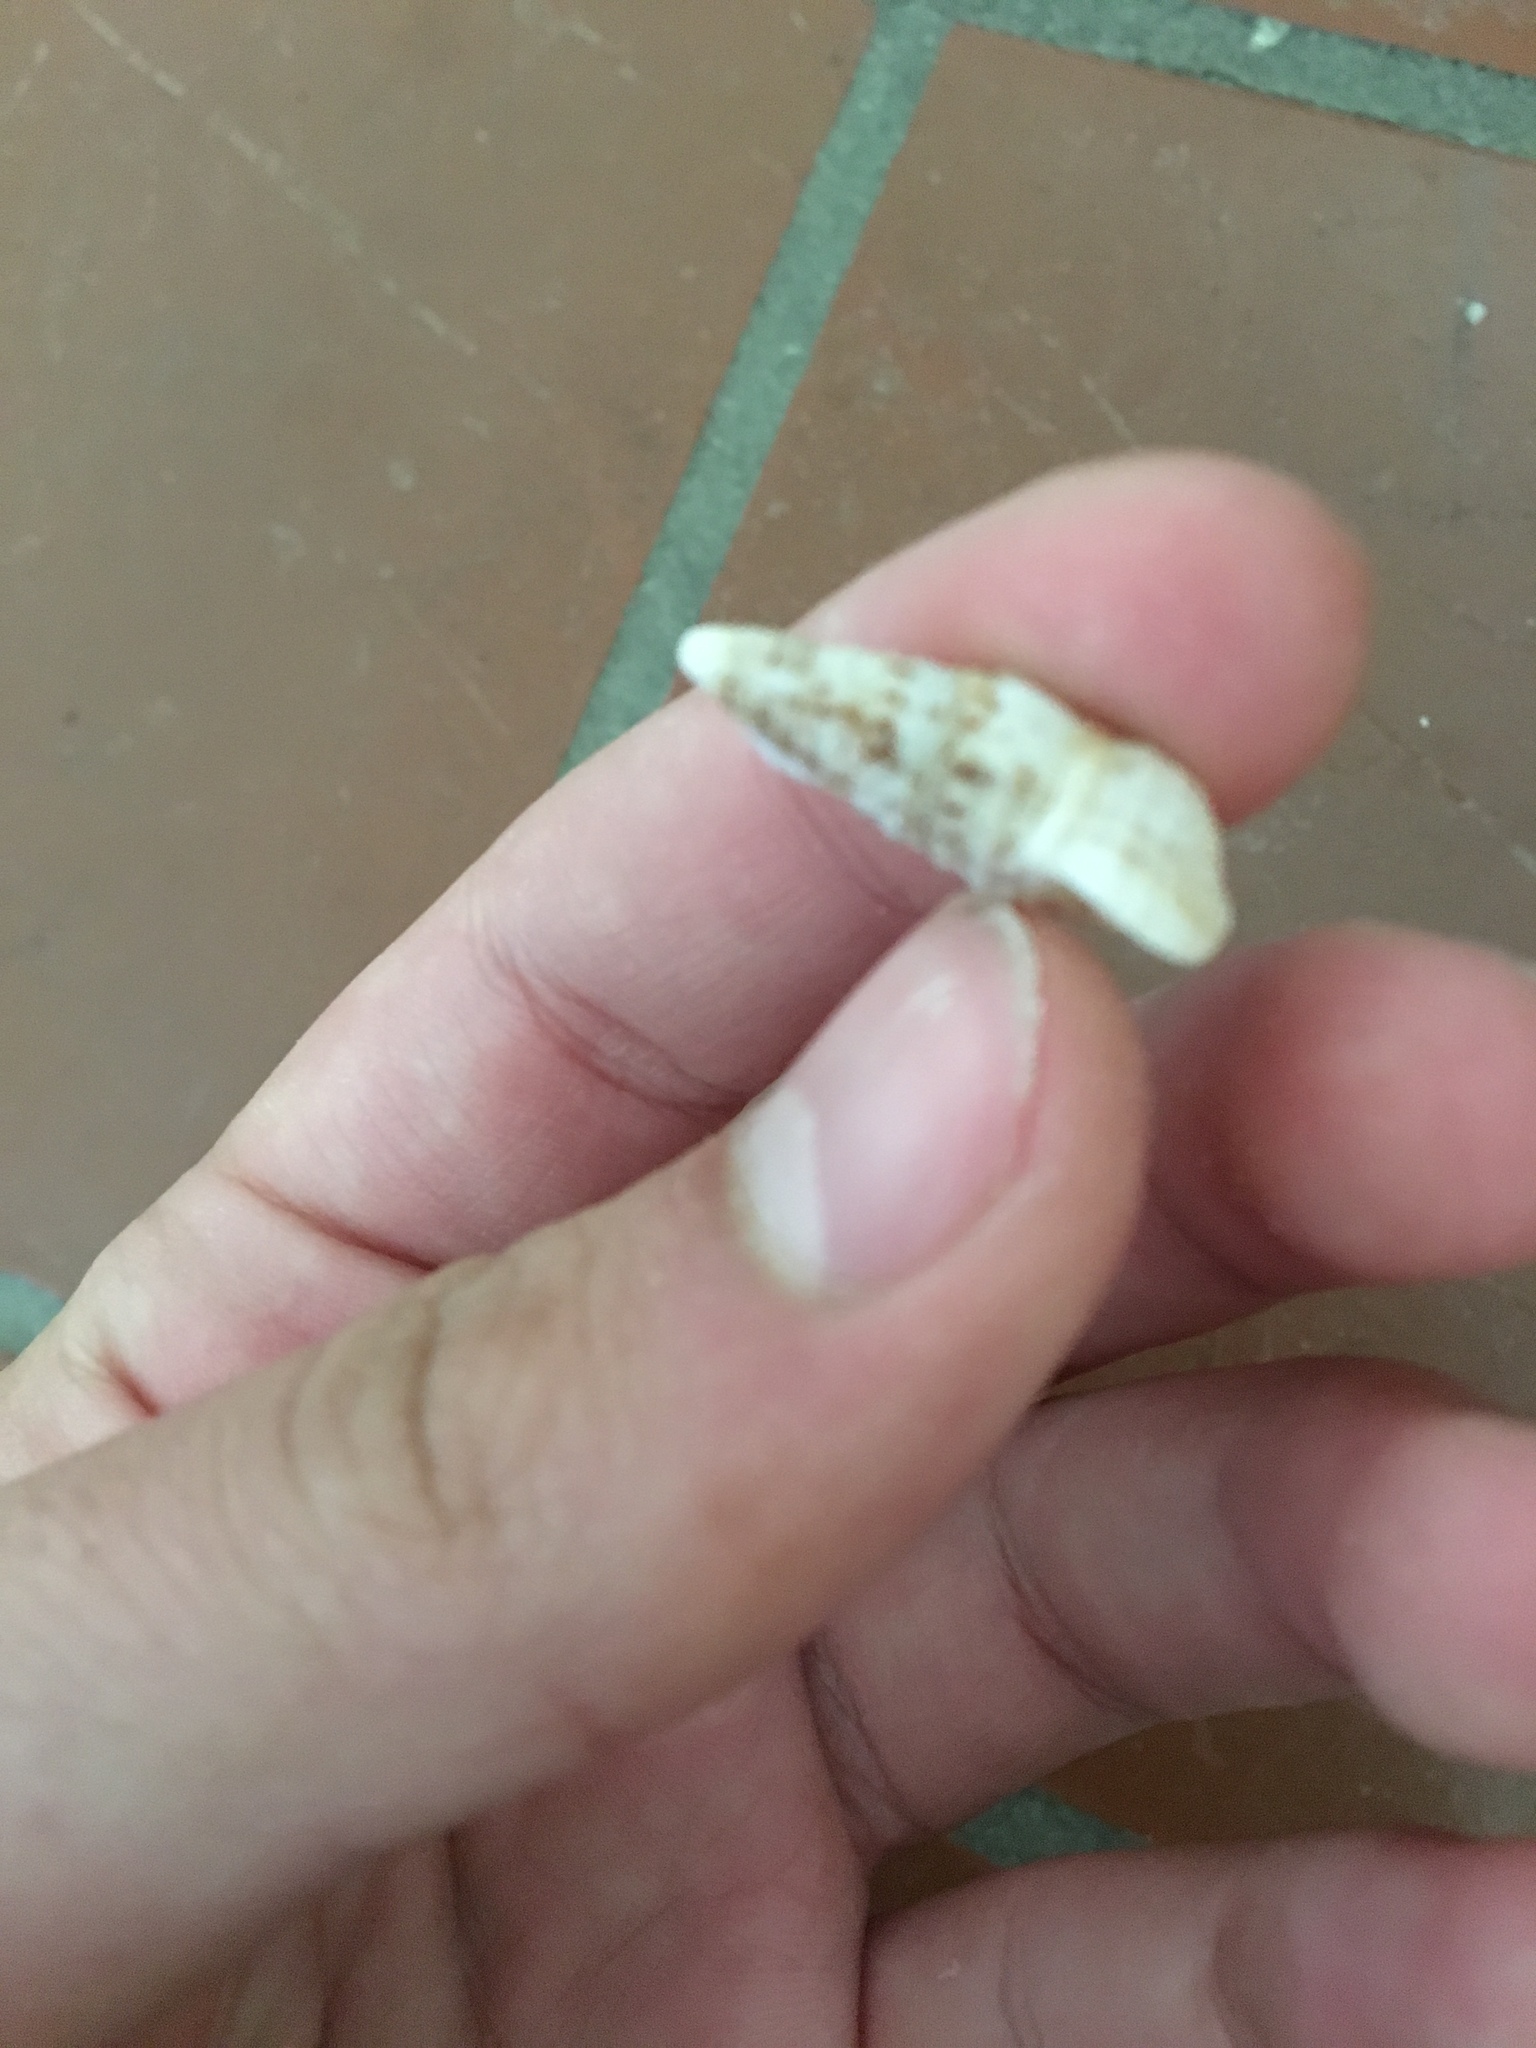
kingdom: Animalia
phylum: Mollusca
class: Gastropoda
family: Cerithiidae
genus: Cerithium
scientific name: Cerithium atratum
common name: Dark cerith
